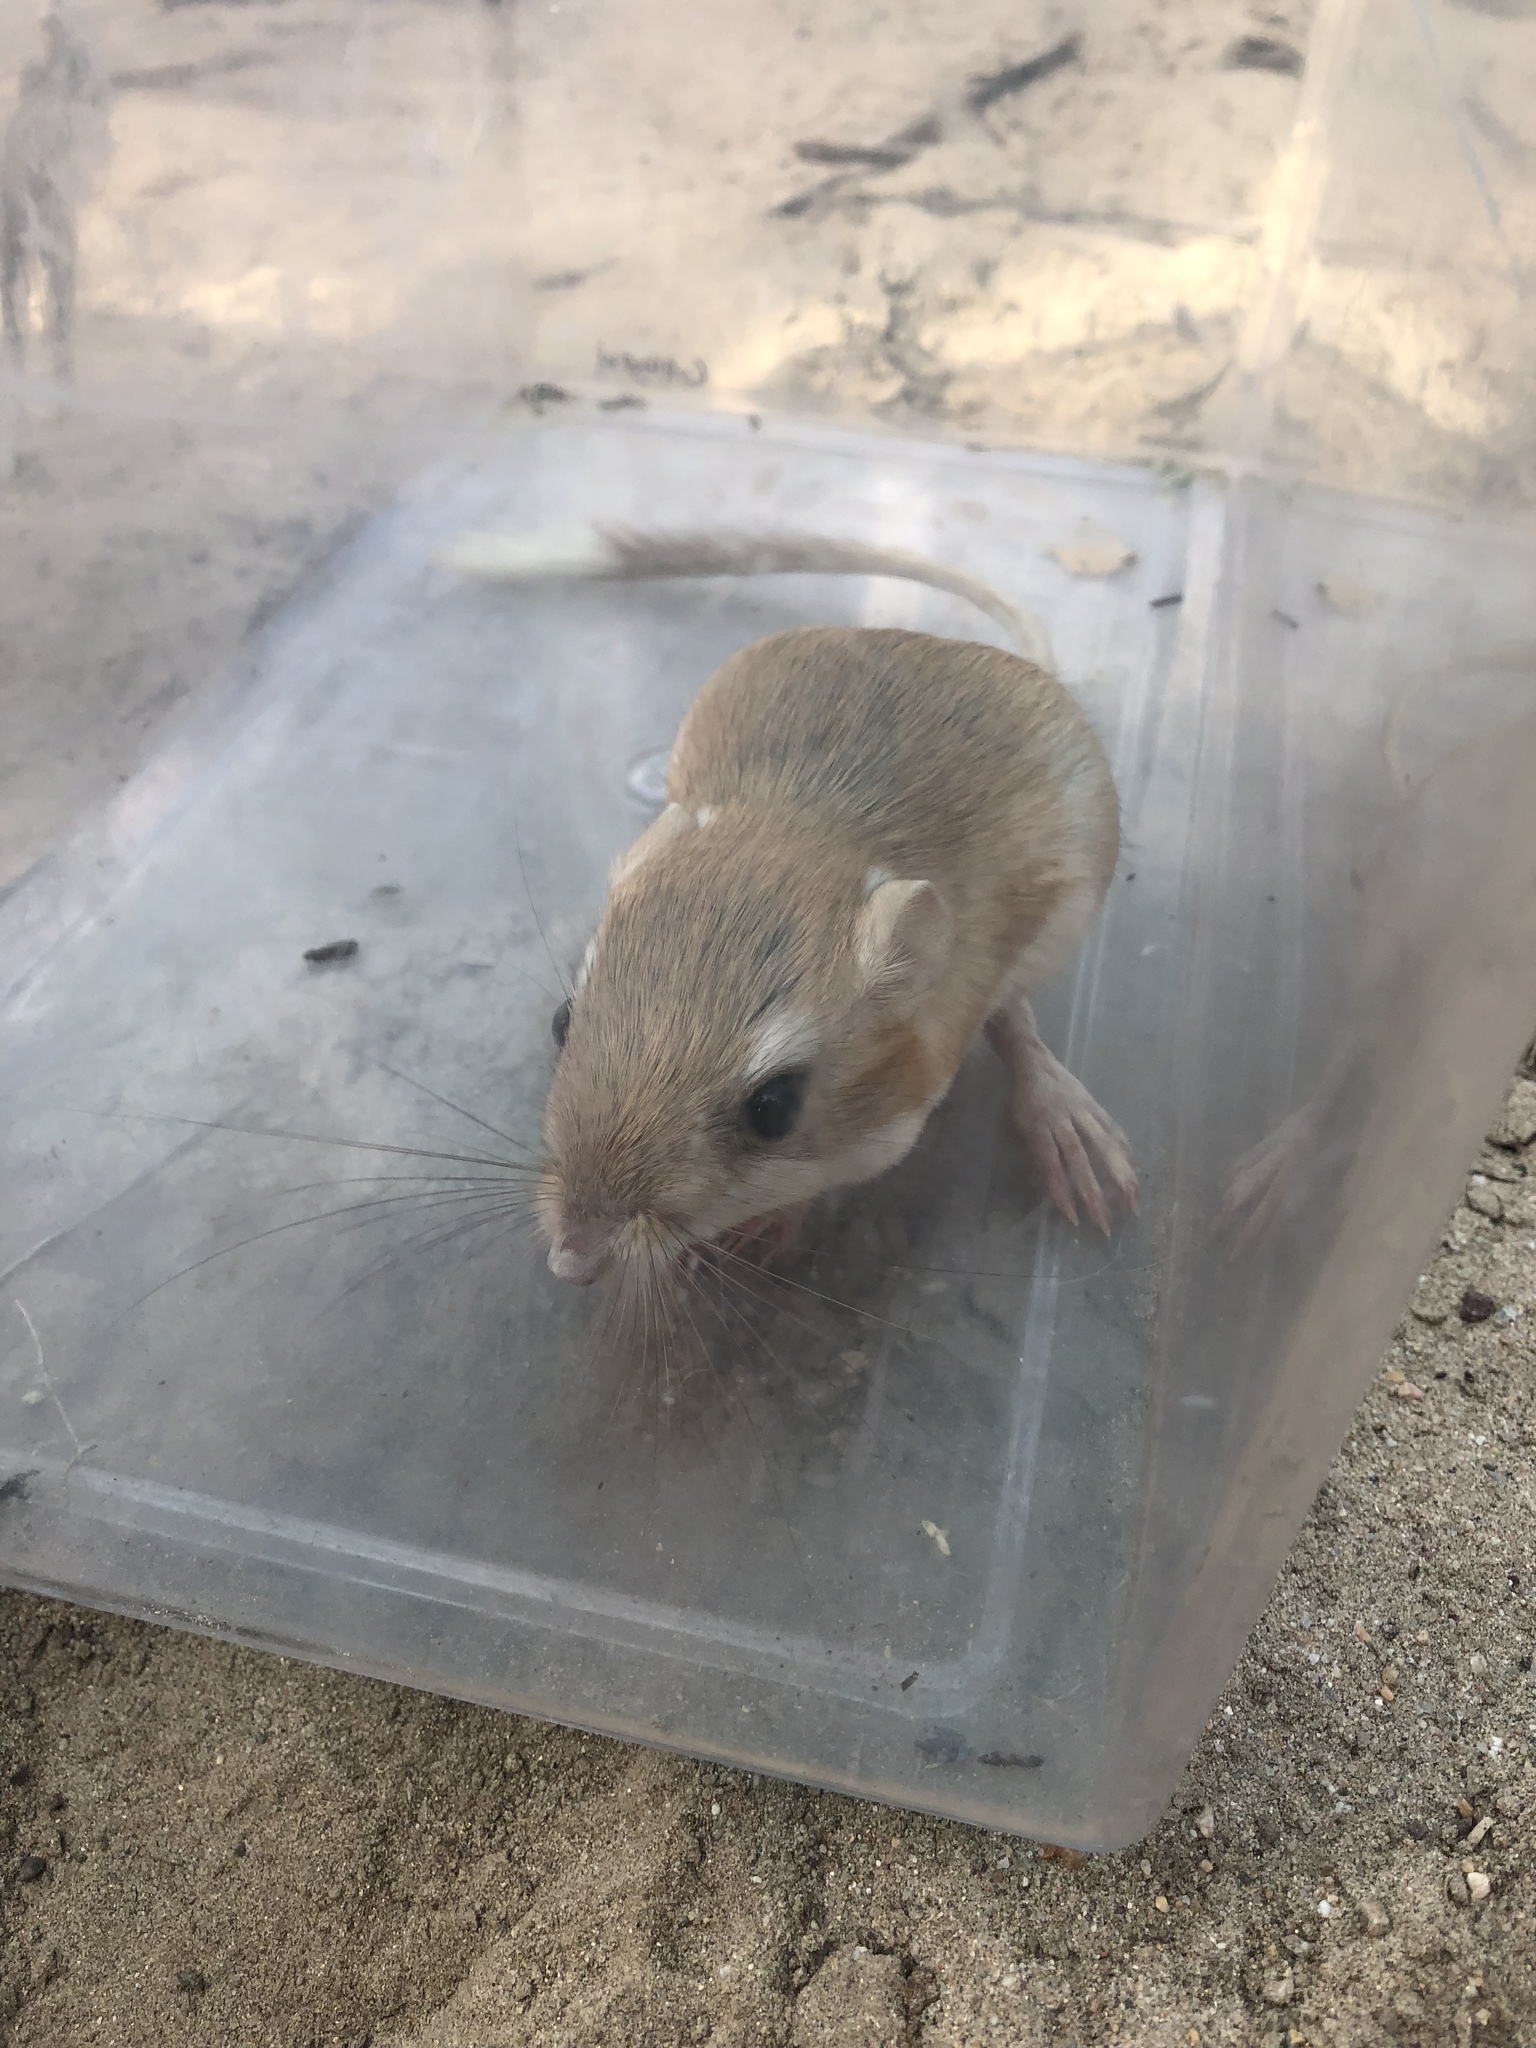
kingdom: Animalia
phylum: Chordata
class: Mammalia
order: Rodentia
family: Heteromyidae
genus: Dipodomys
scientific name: Dipodomys deserti
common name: Desert kangaroo rat
